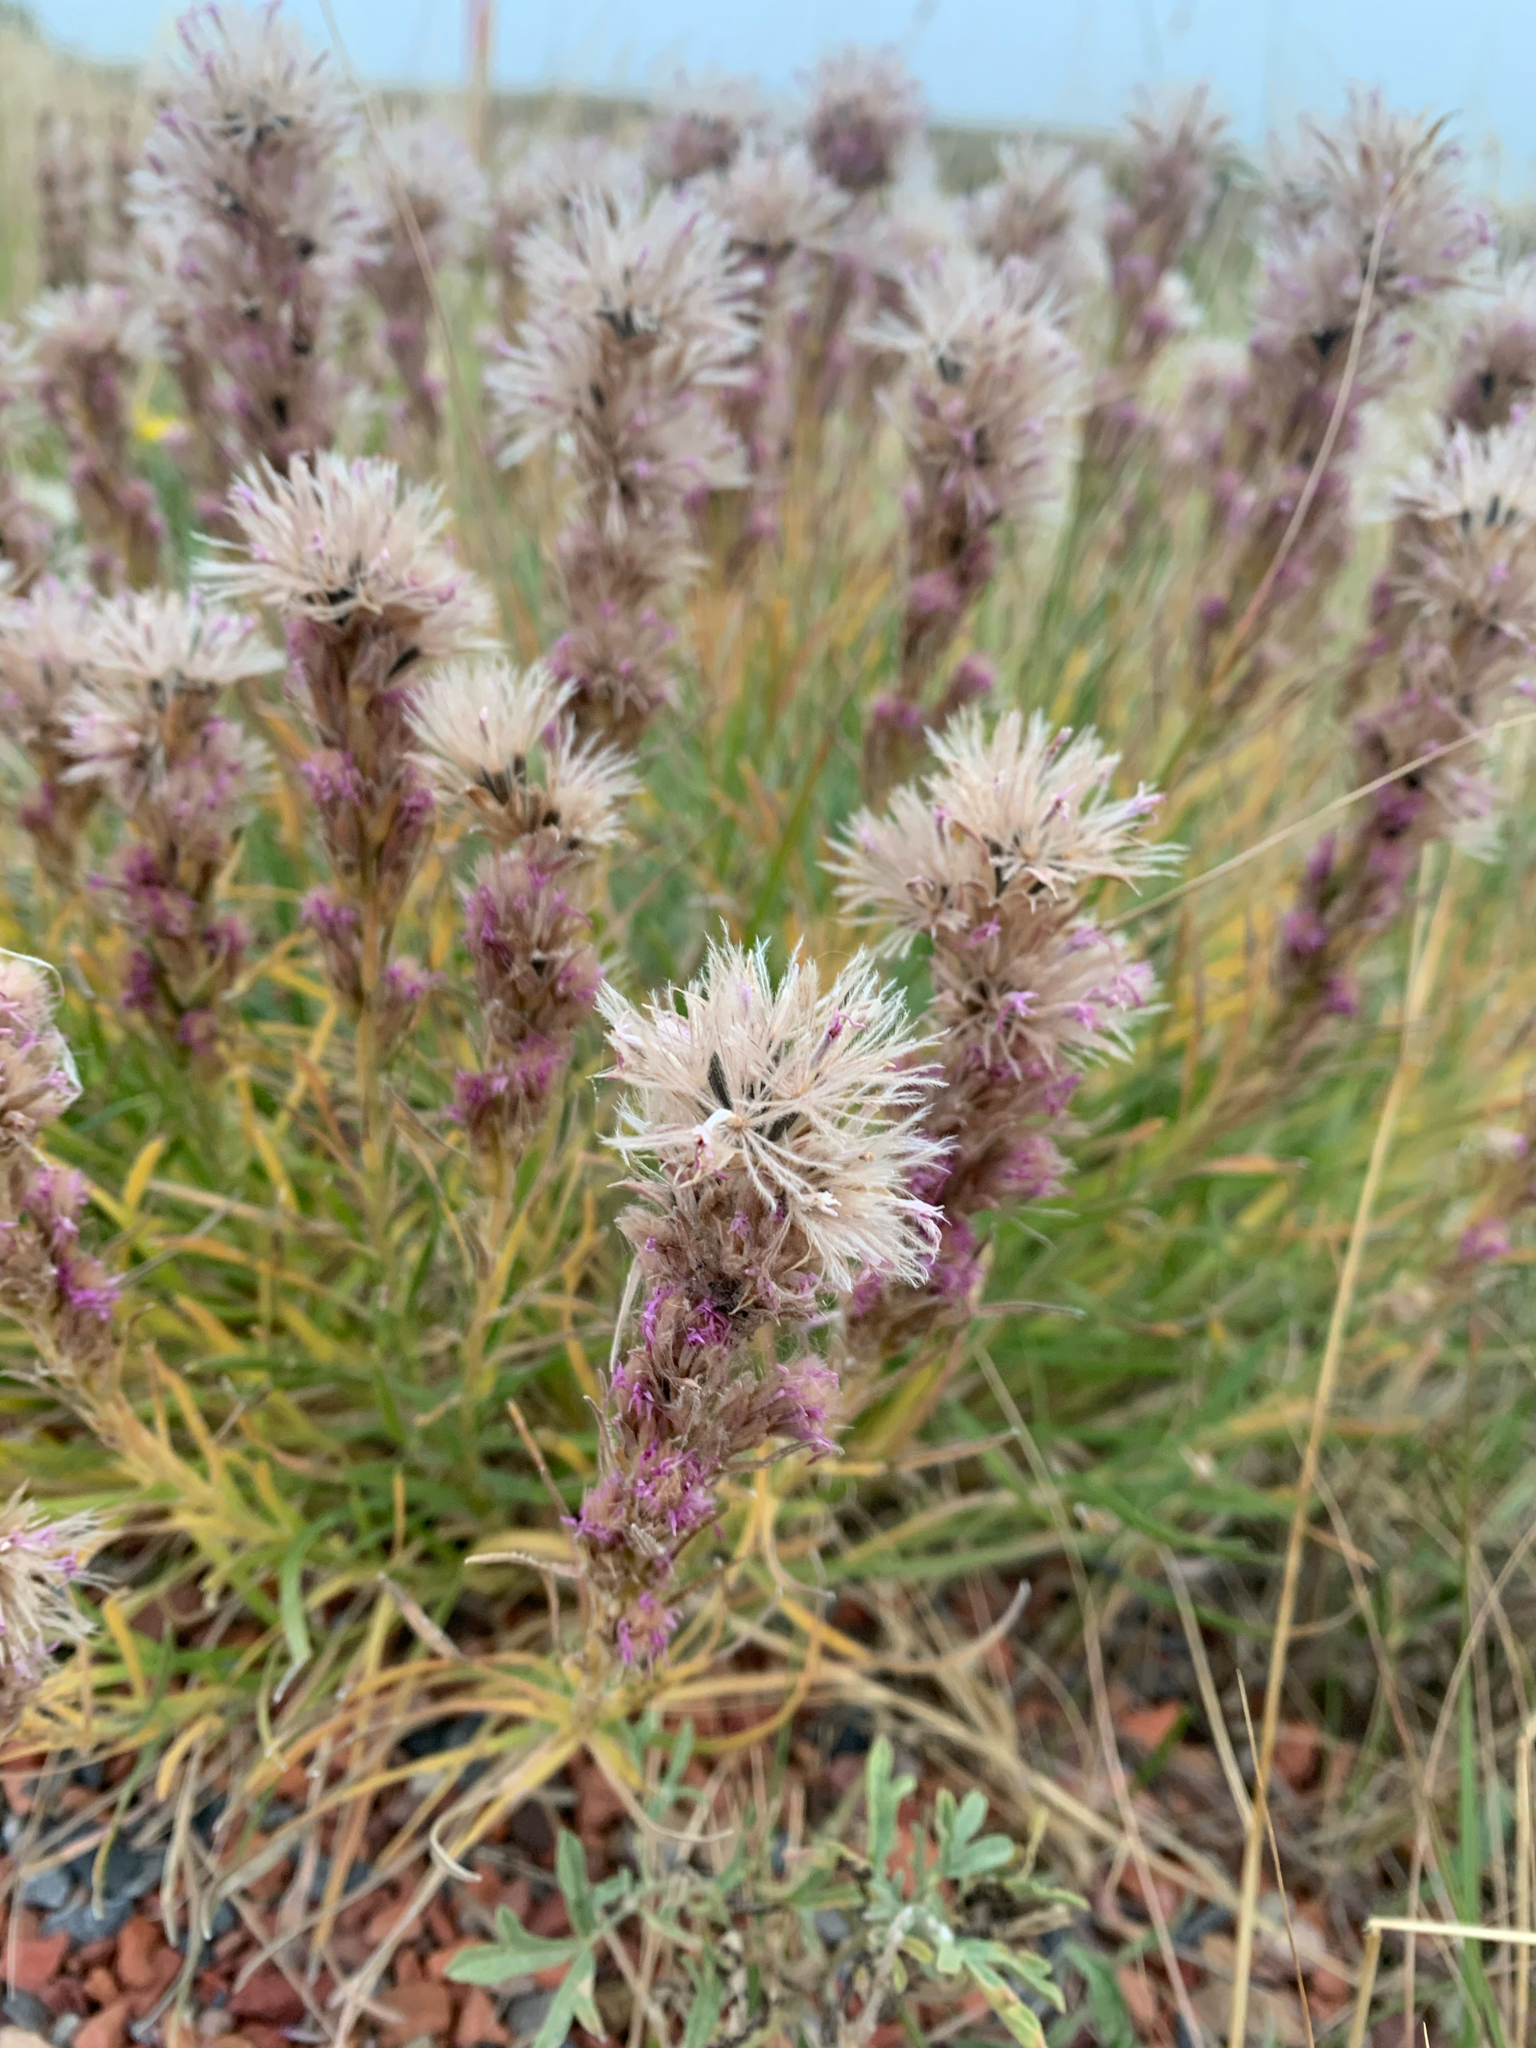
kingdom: Plantae
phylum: Tracheophyta
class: Magnoliopsida
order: Asterales
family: Asteraceae
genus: Liatris
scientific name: Liatris punctata
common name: Dotted gayfeather
